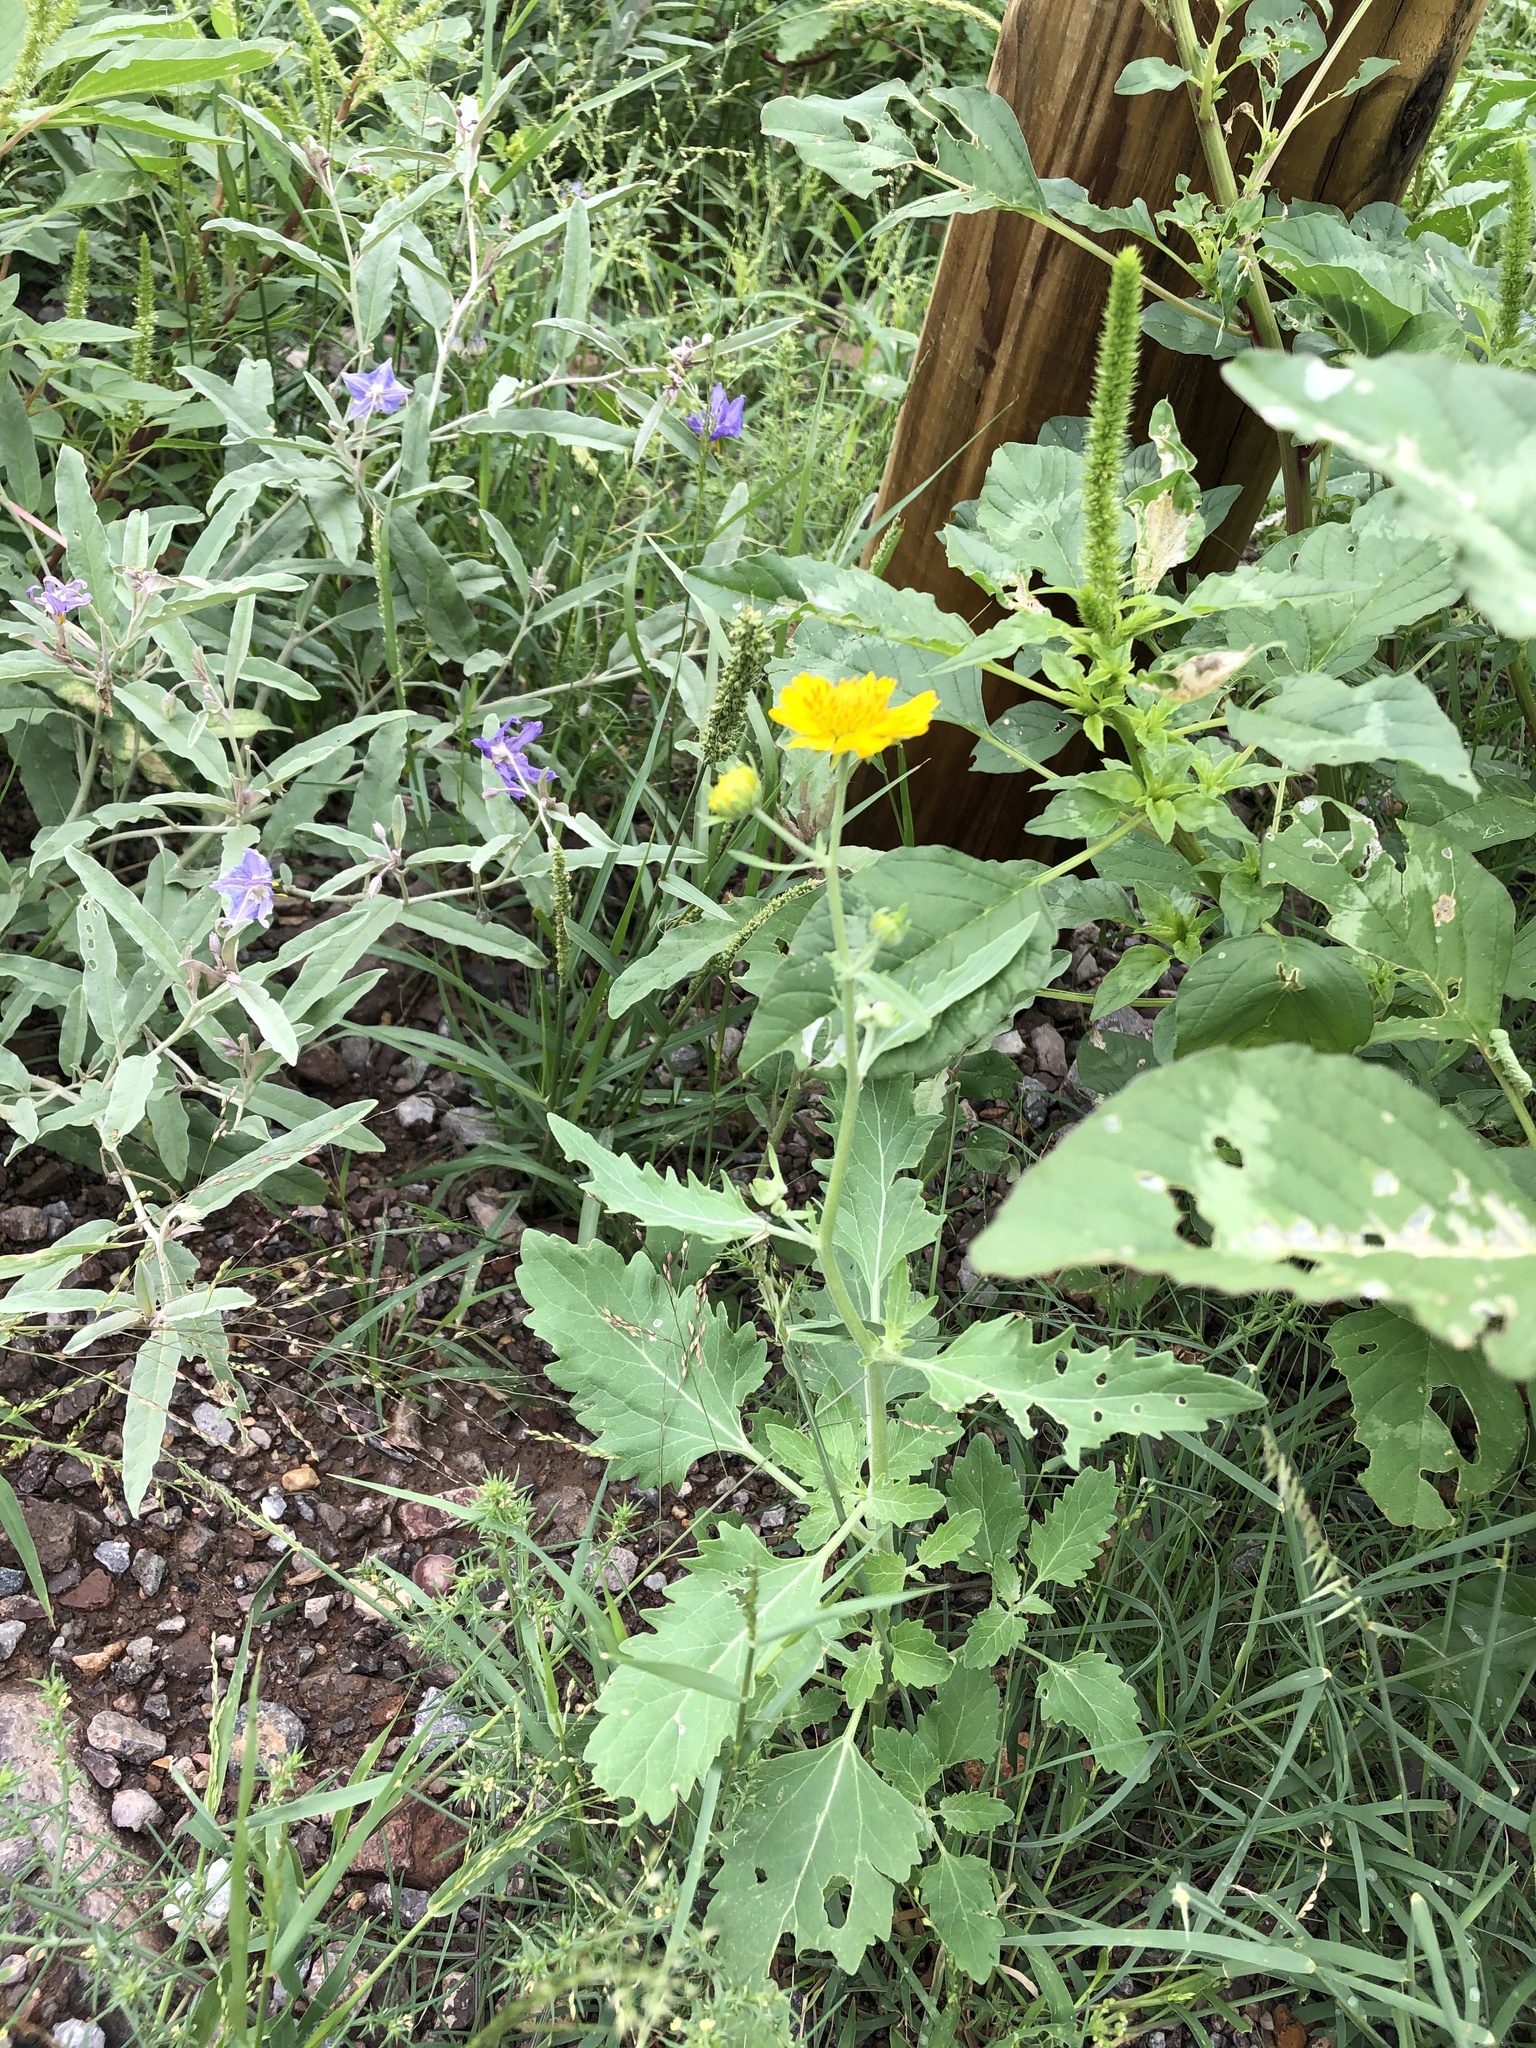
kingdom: Plantae
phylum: Tracheophyta
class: Magnoliopsida
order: Asterales
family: Asteraceae
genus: Verbesina
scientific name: Verbesina encelioides
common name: Golden crownbeard
